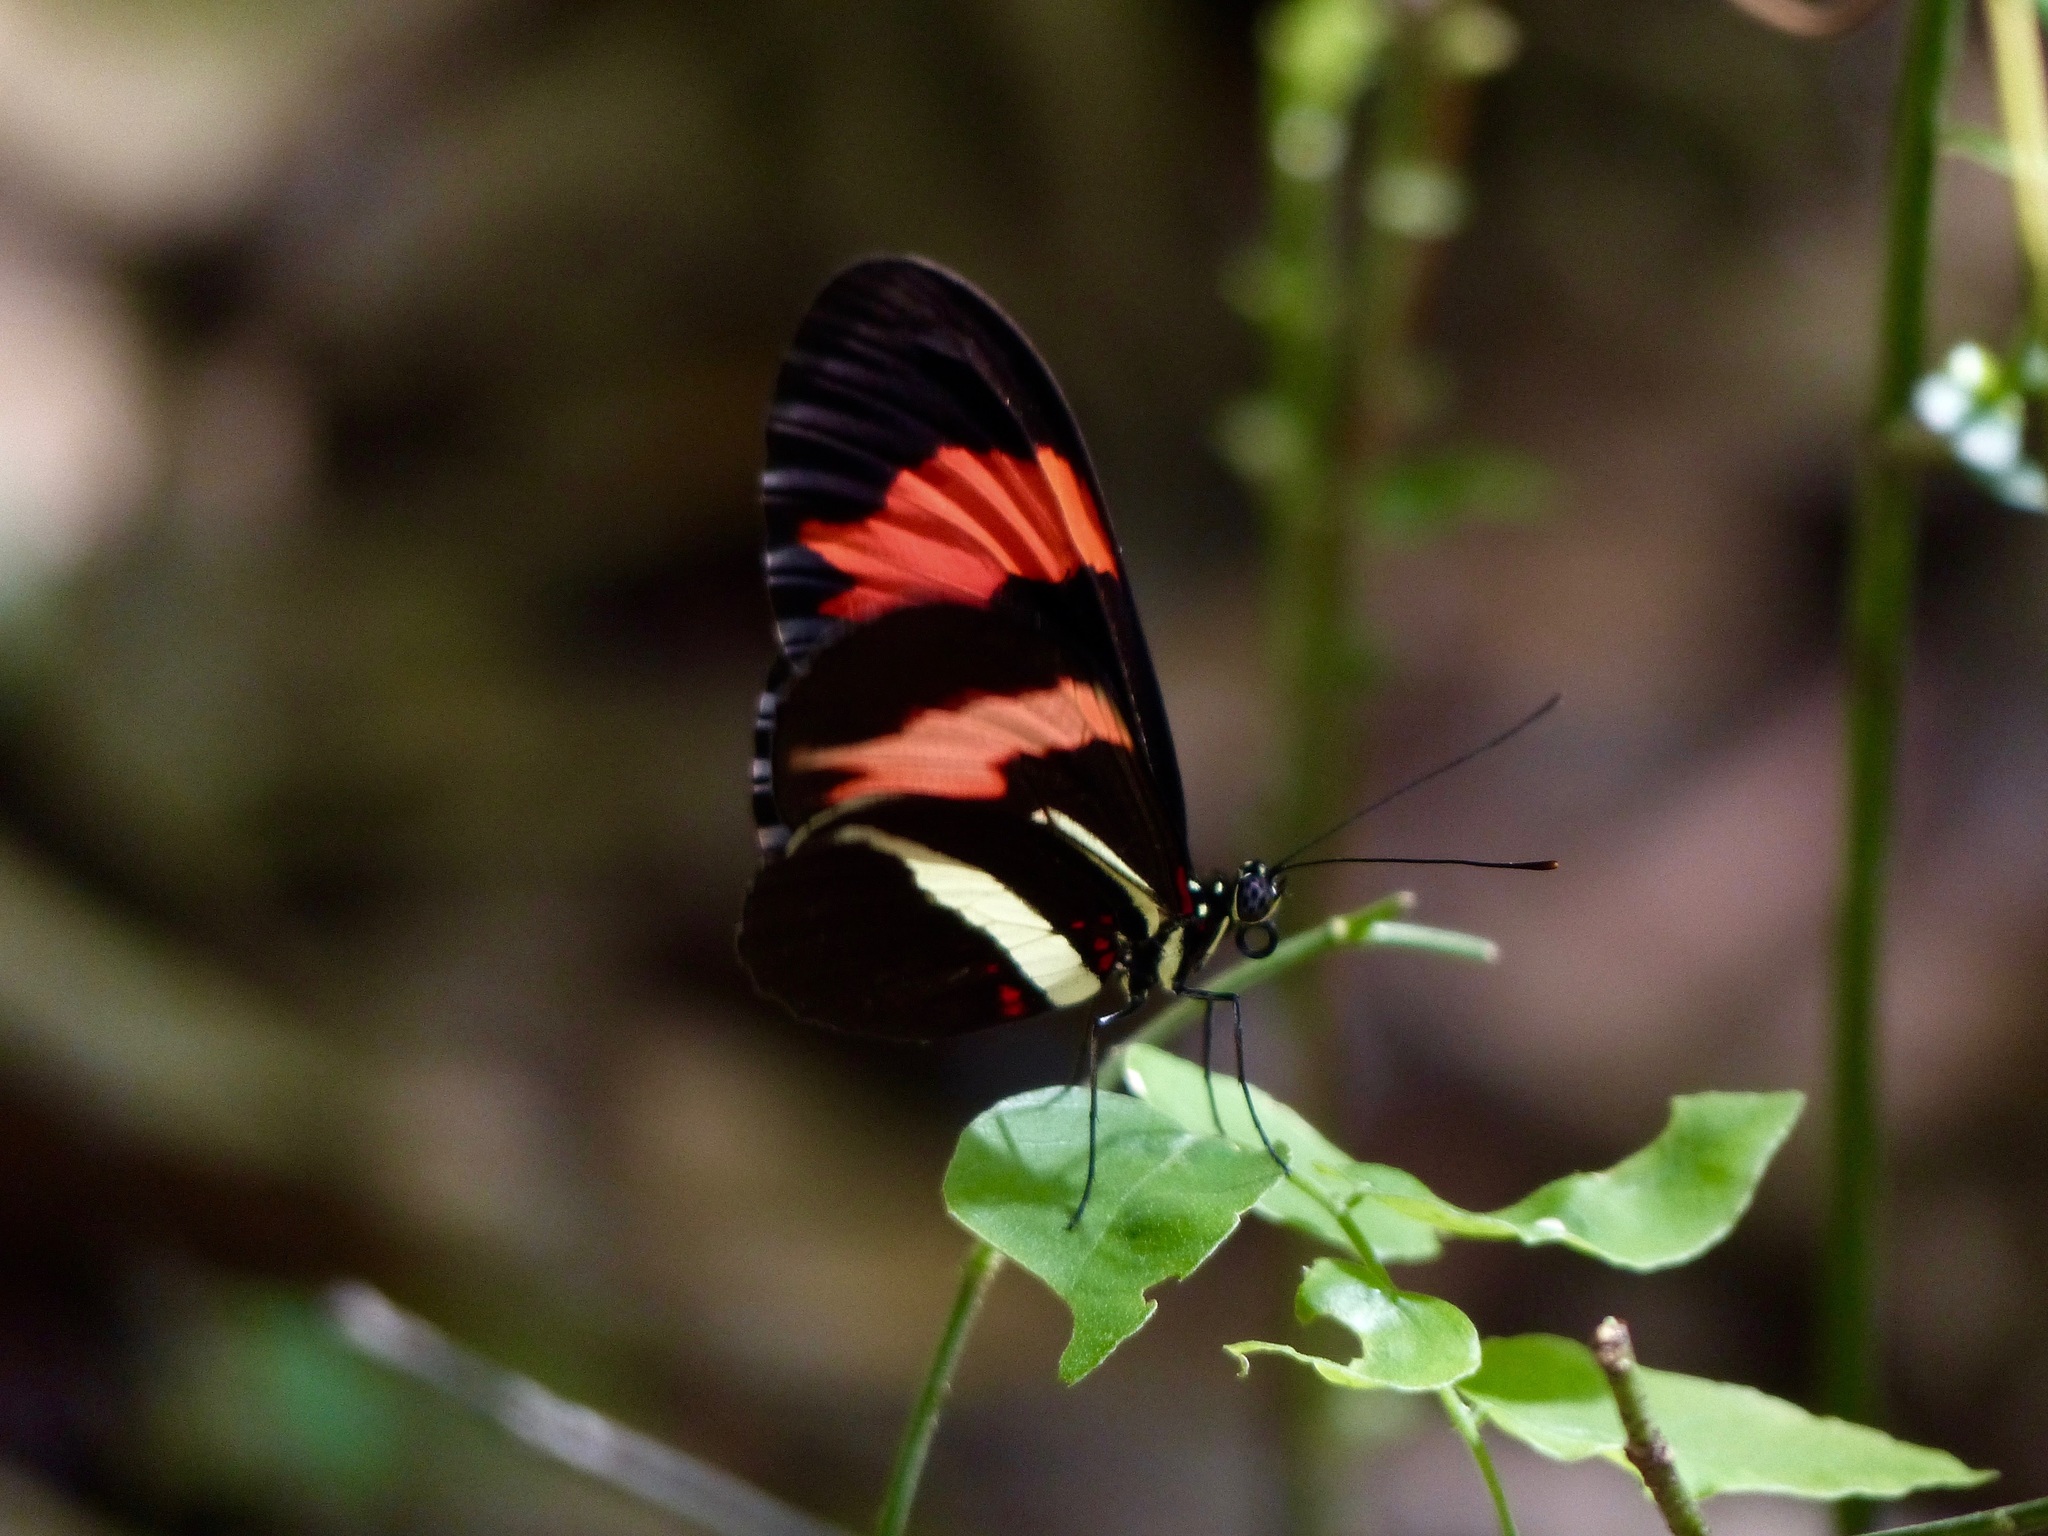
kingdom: Animalia
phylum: Arthropoda
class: Insecta
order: Lepidoptera
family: Nymphalidae
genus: Heliconius
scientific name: Heliconius erato
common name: Common patch longwing
